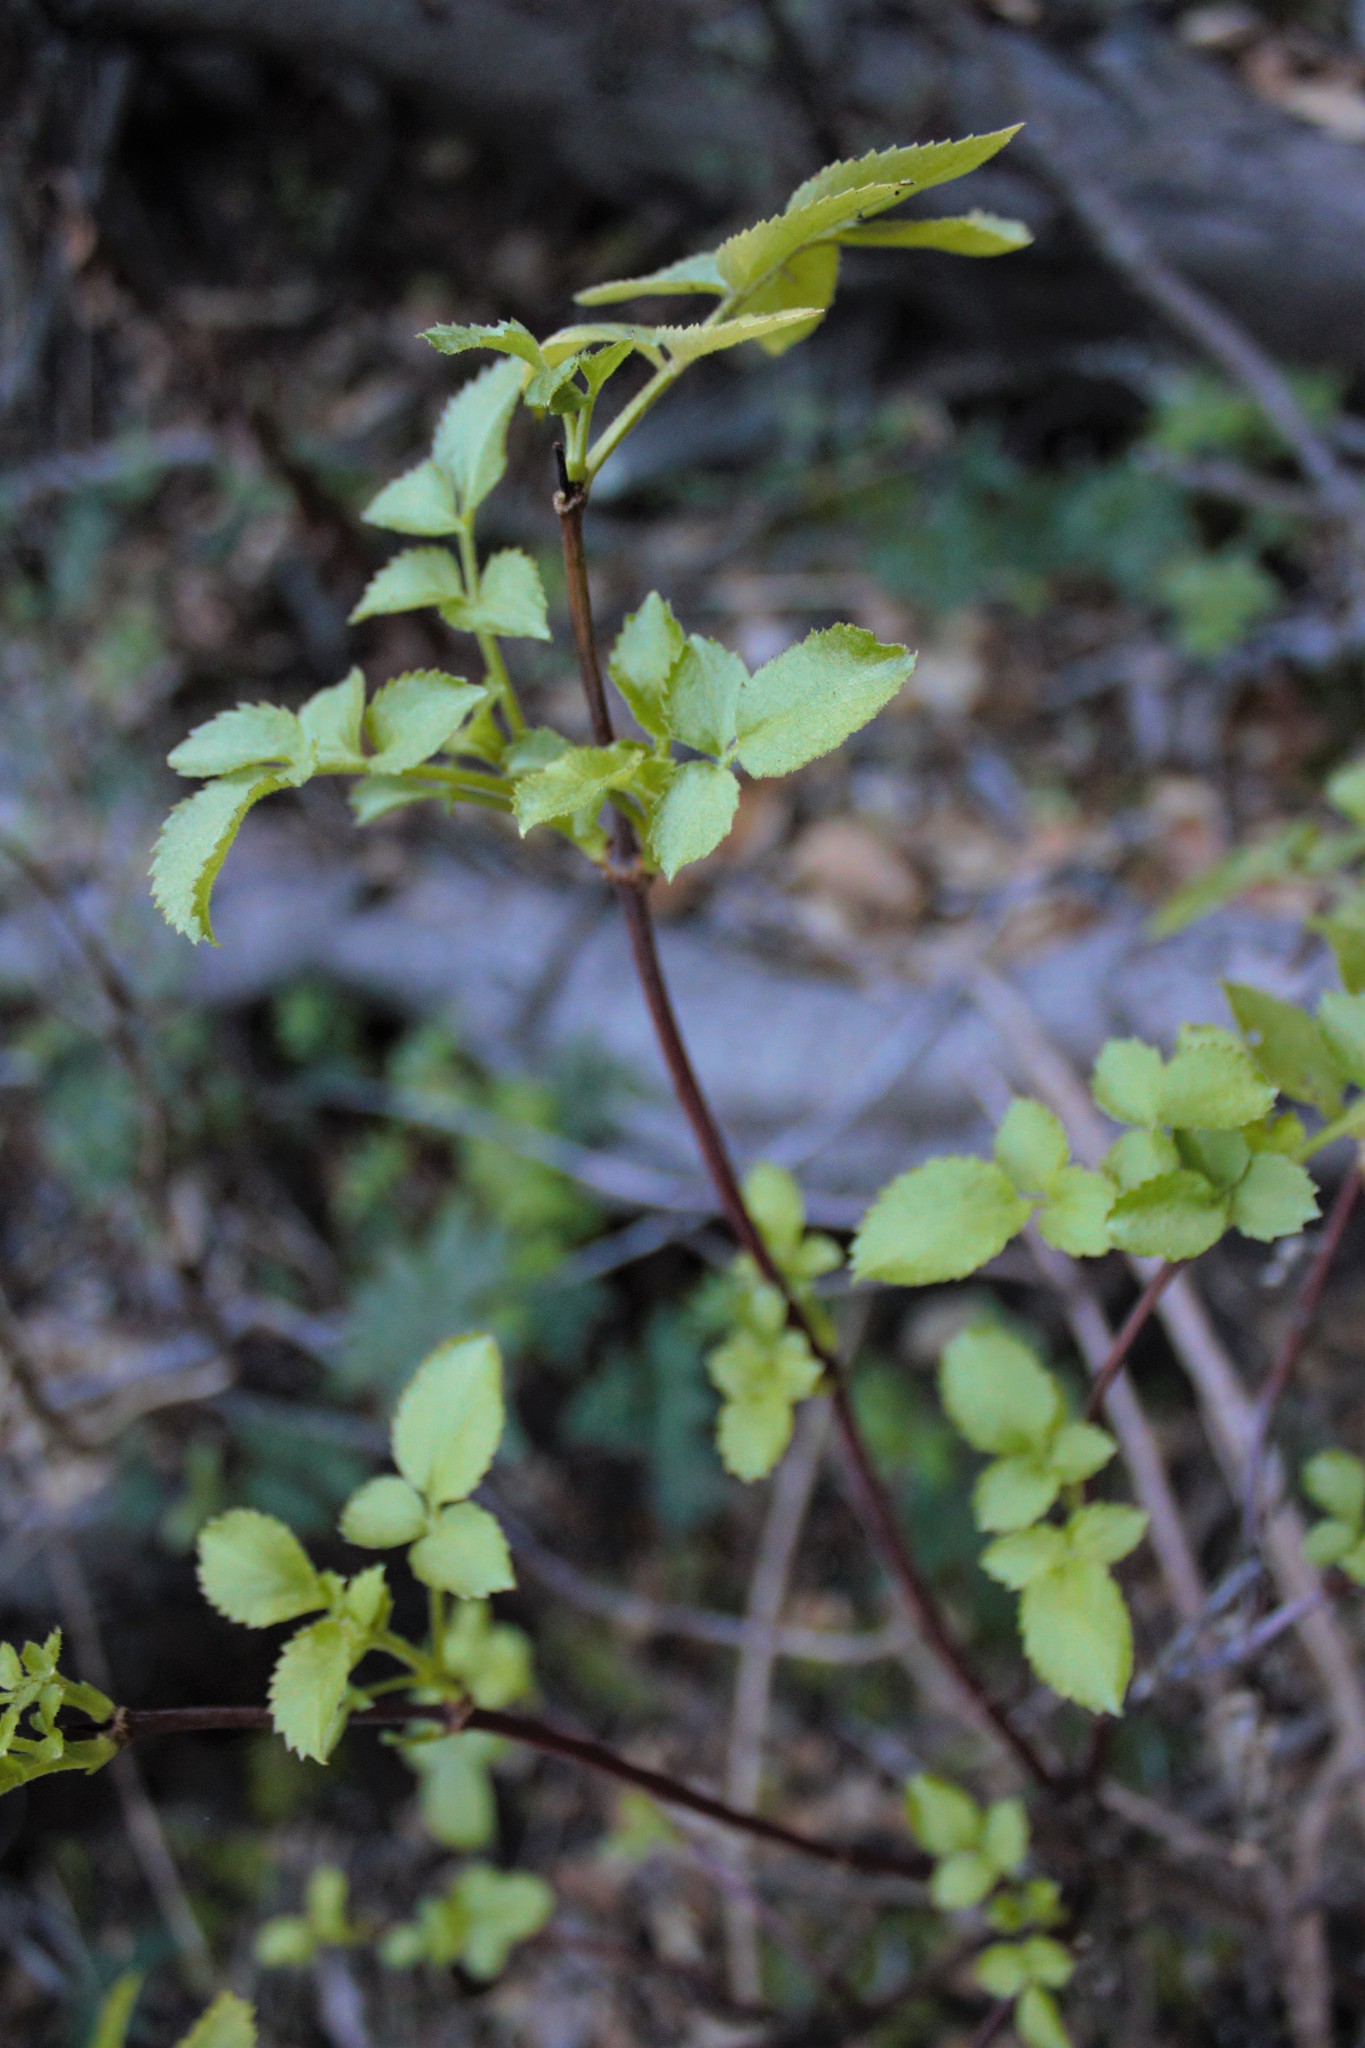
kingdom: Plantae
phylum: Tracheophyta
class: Magnoliopsida
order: Dipsacales
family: Viburnaceae
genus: Sambucus
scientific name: Sambucus cerulea
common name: Blue elder
